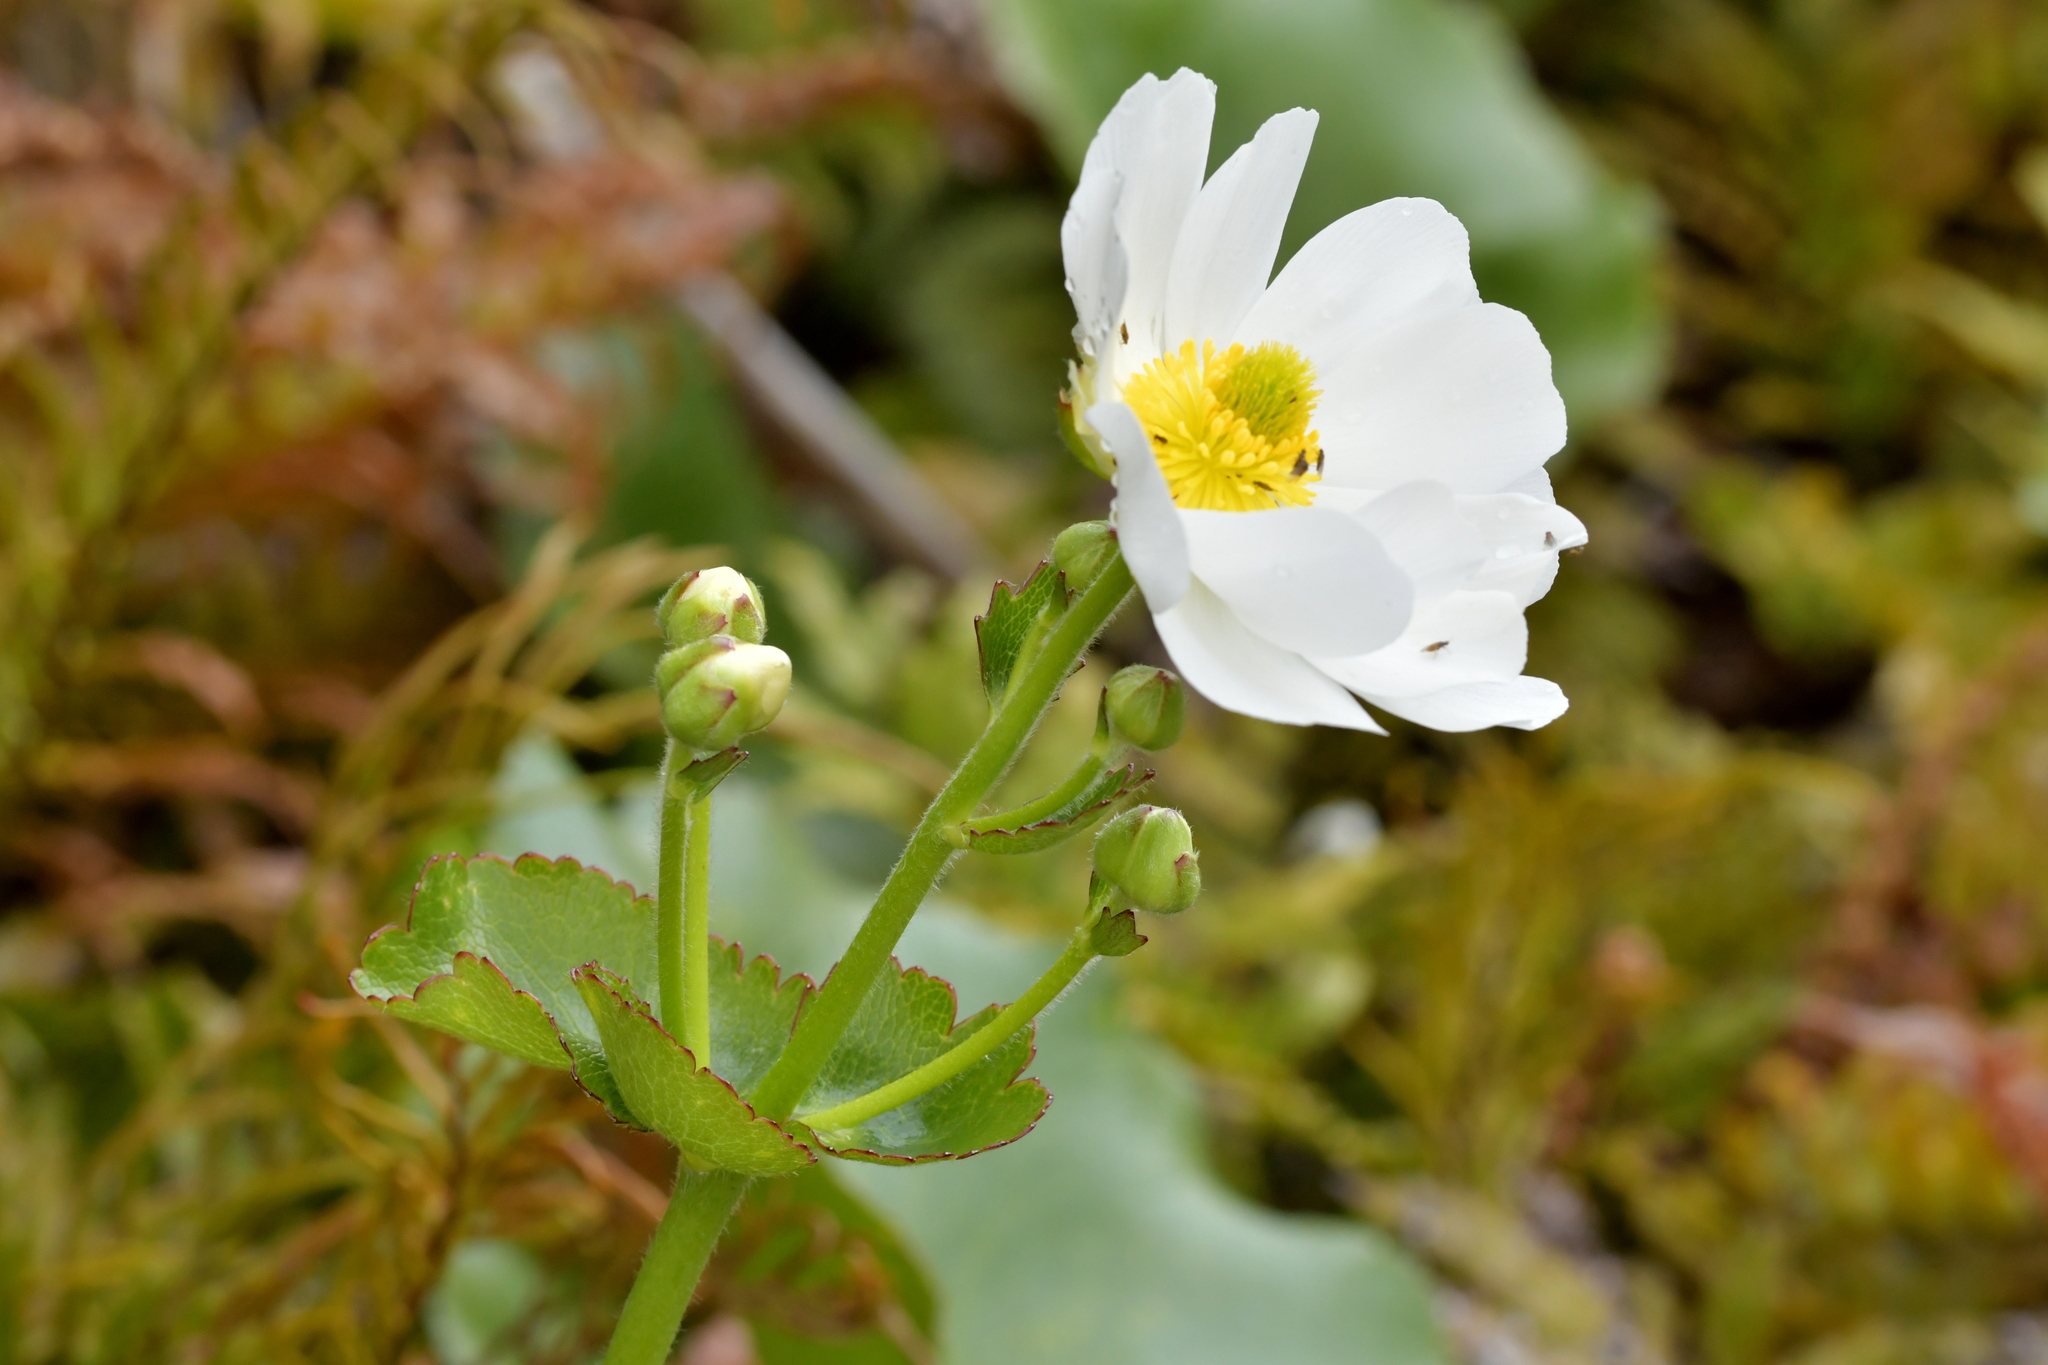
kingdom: Plantae
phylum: Tracheophyta
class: Magnoliopsida
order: Ranunculales
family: Ranunculaceae
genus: Ranunculus
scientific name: Ranunculus lyallii
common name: Mountain-lily
